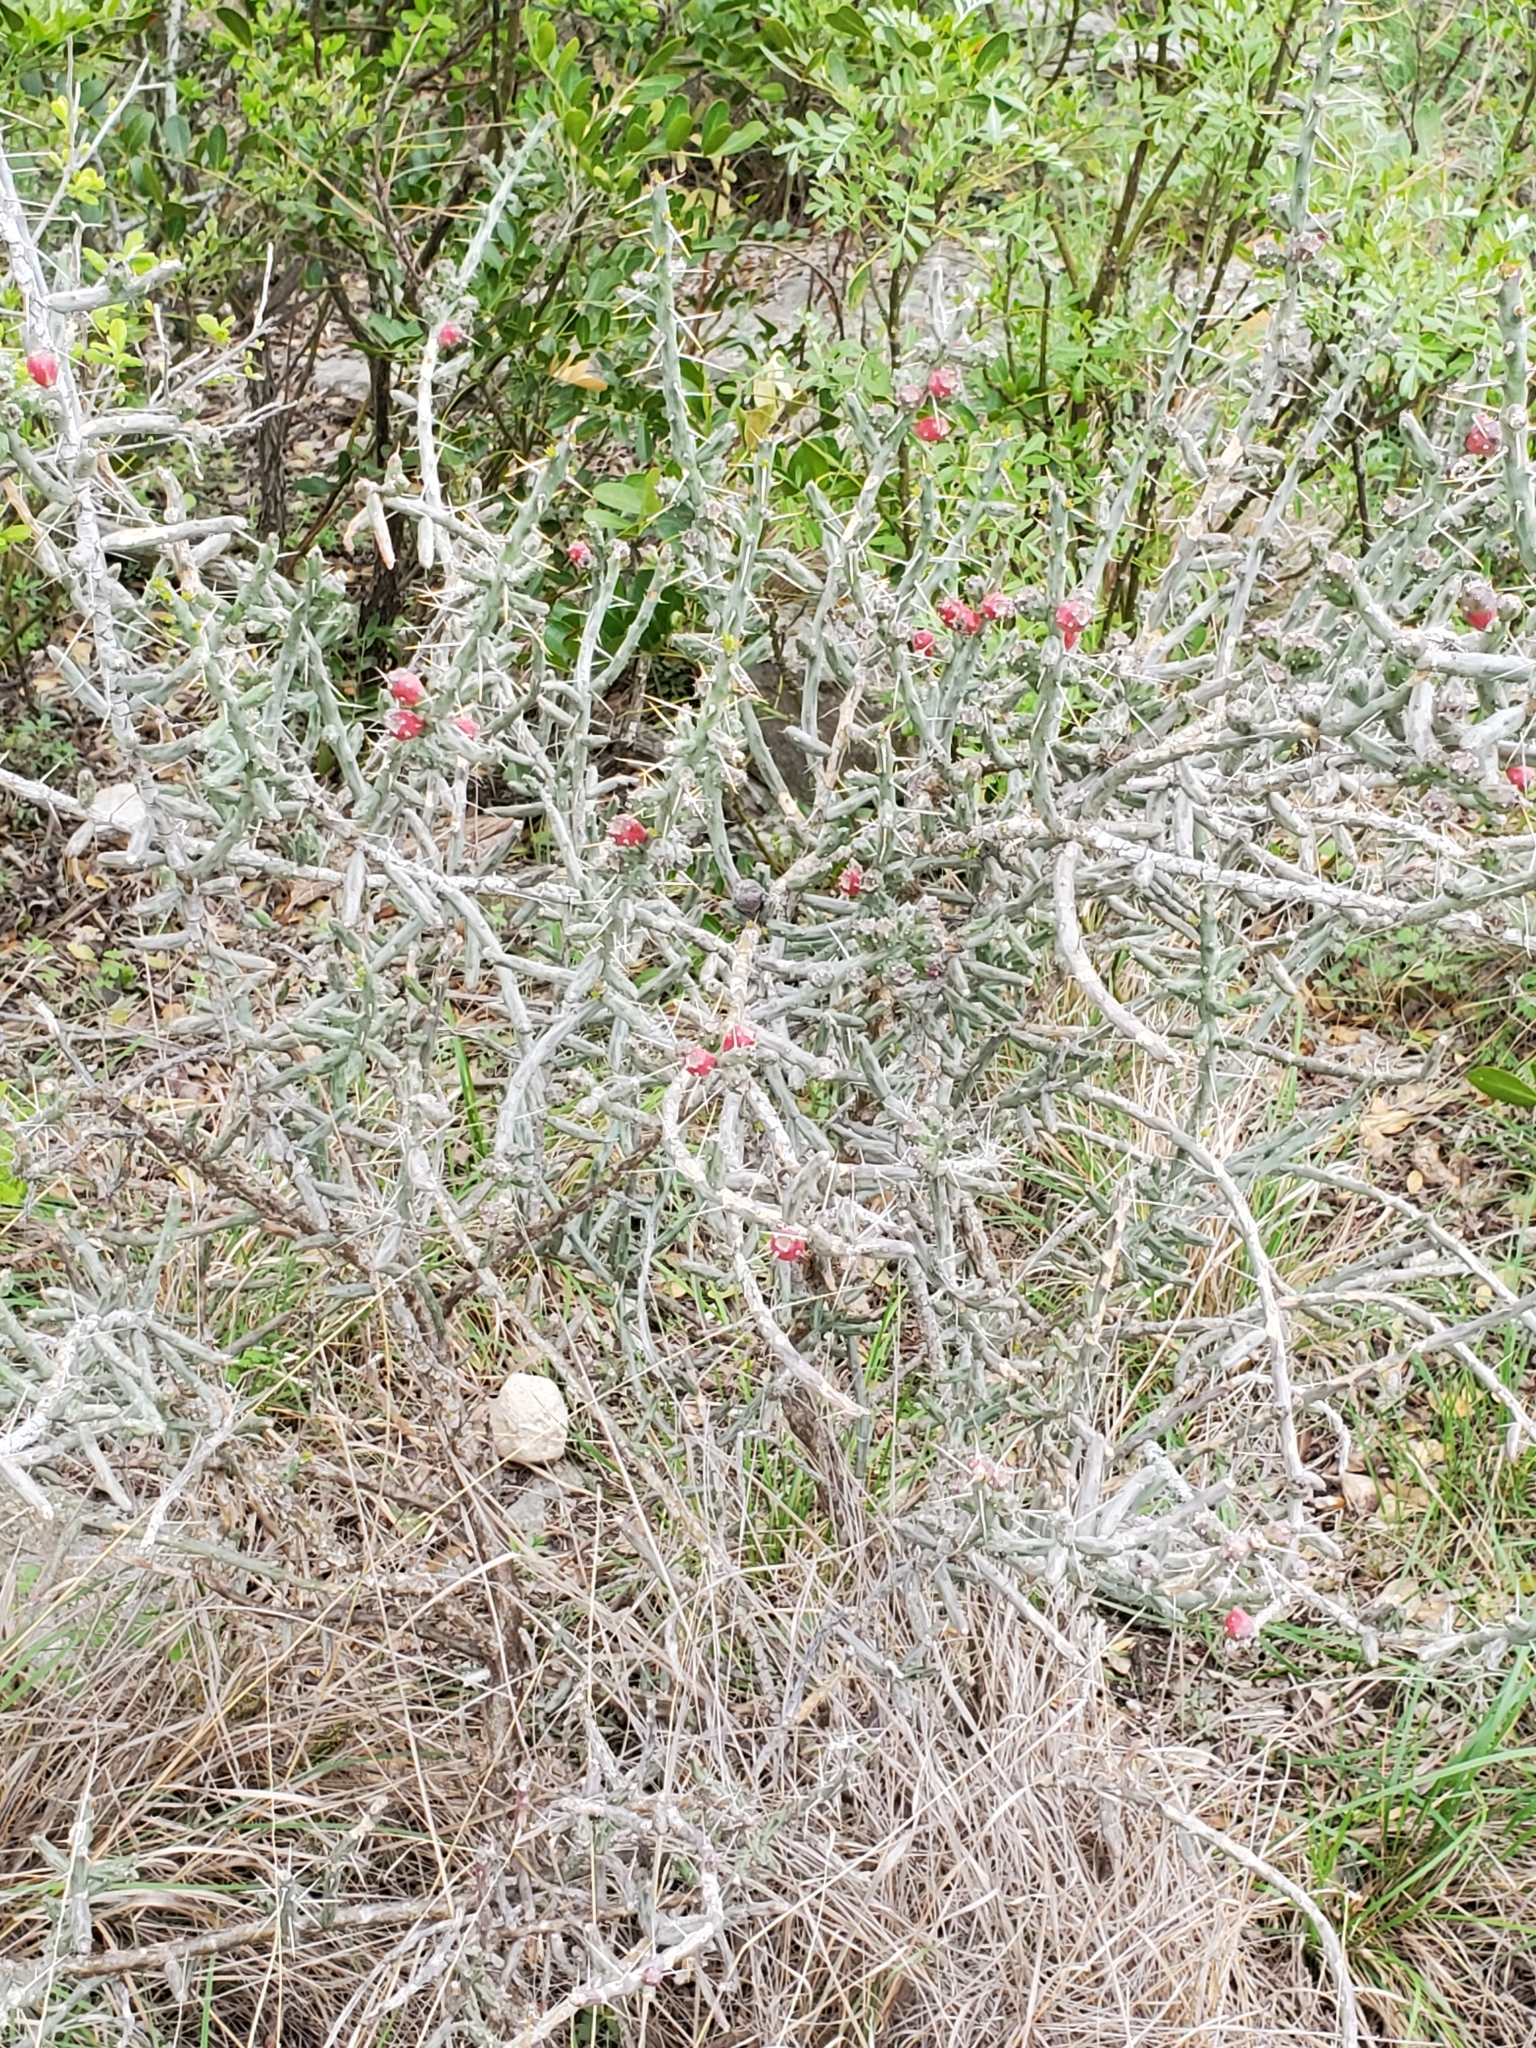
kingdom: Plantae
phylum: Tracheophyta
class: Magnoliopsida
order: Caryophyllales
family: Cactaceae
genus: Cylindropuntia
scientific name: Cylindropuntia leptocaulis
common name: Christmas cactus
